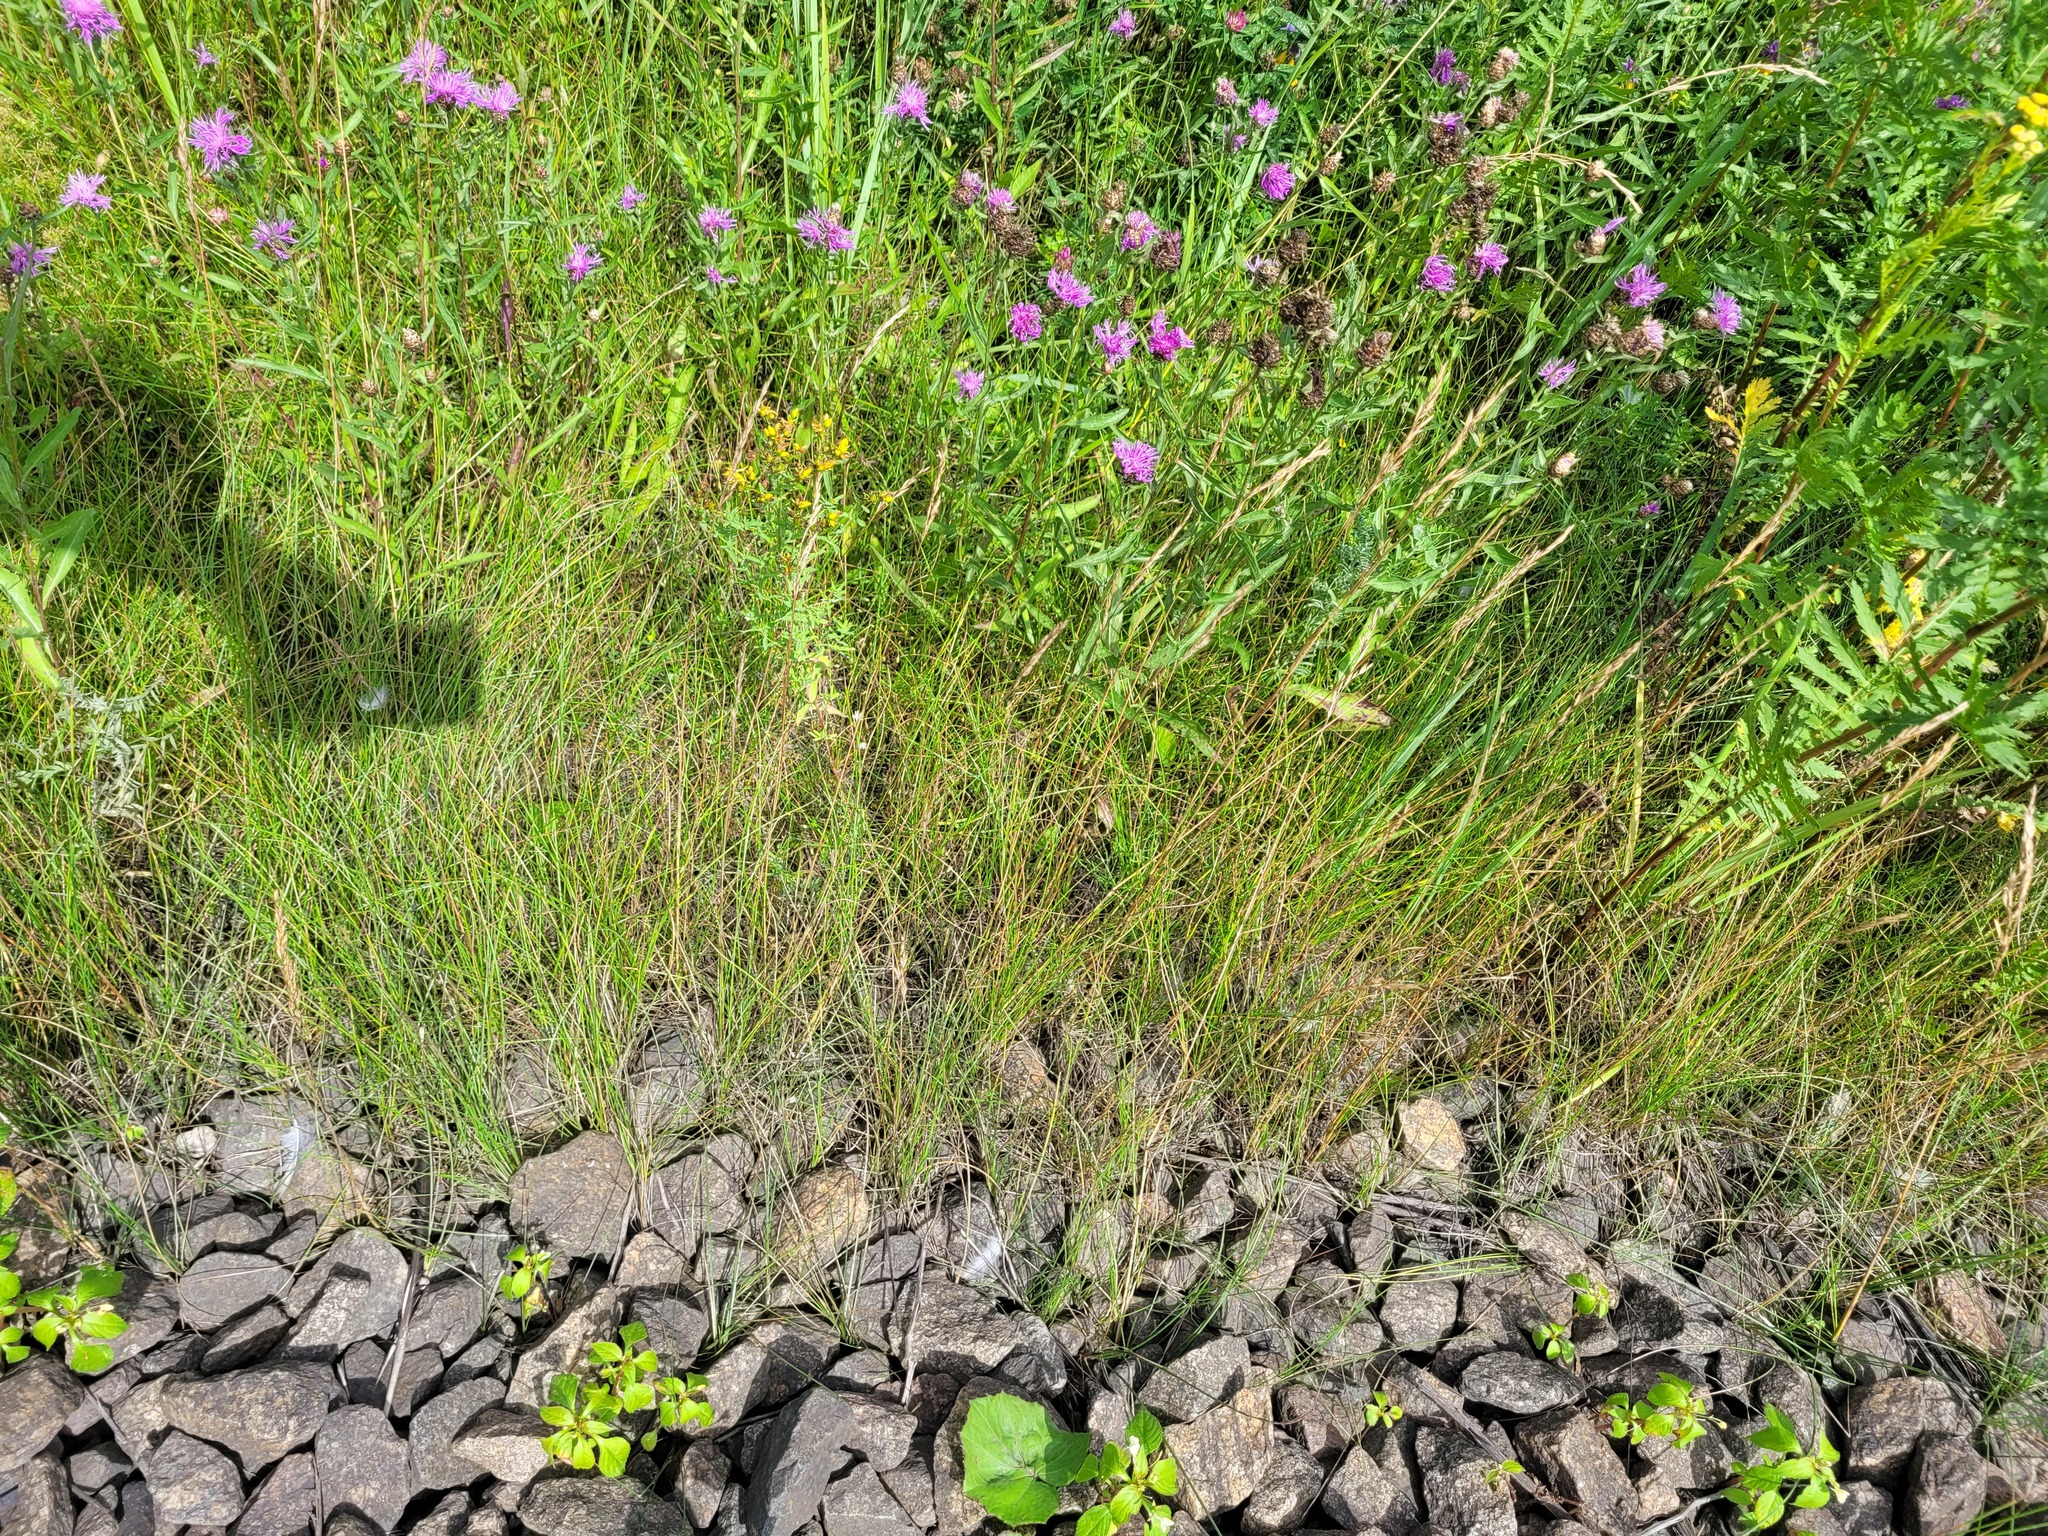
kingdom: Plantae
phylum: Tracheophyta
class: Liliopsida
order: Poales
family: Poaceae
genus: Festuca
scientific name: Festuca rubra
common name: Red fescue
